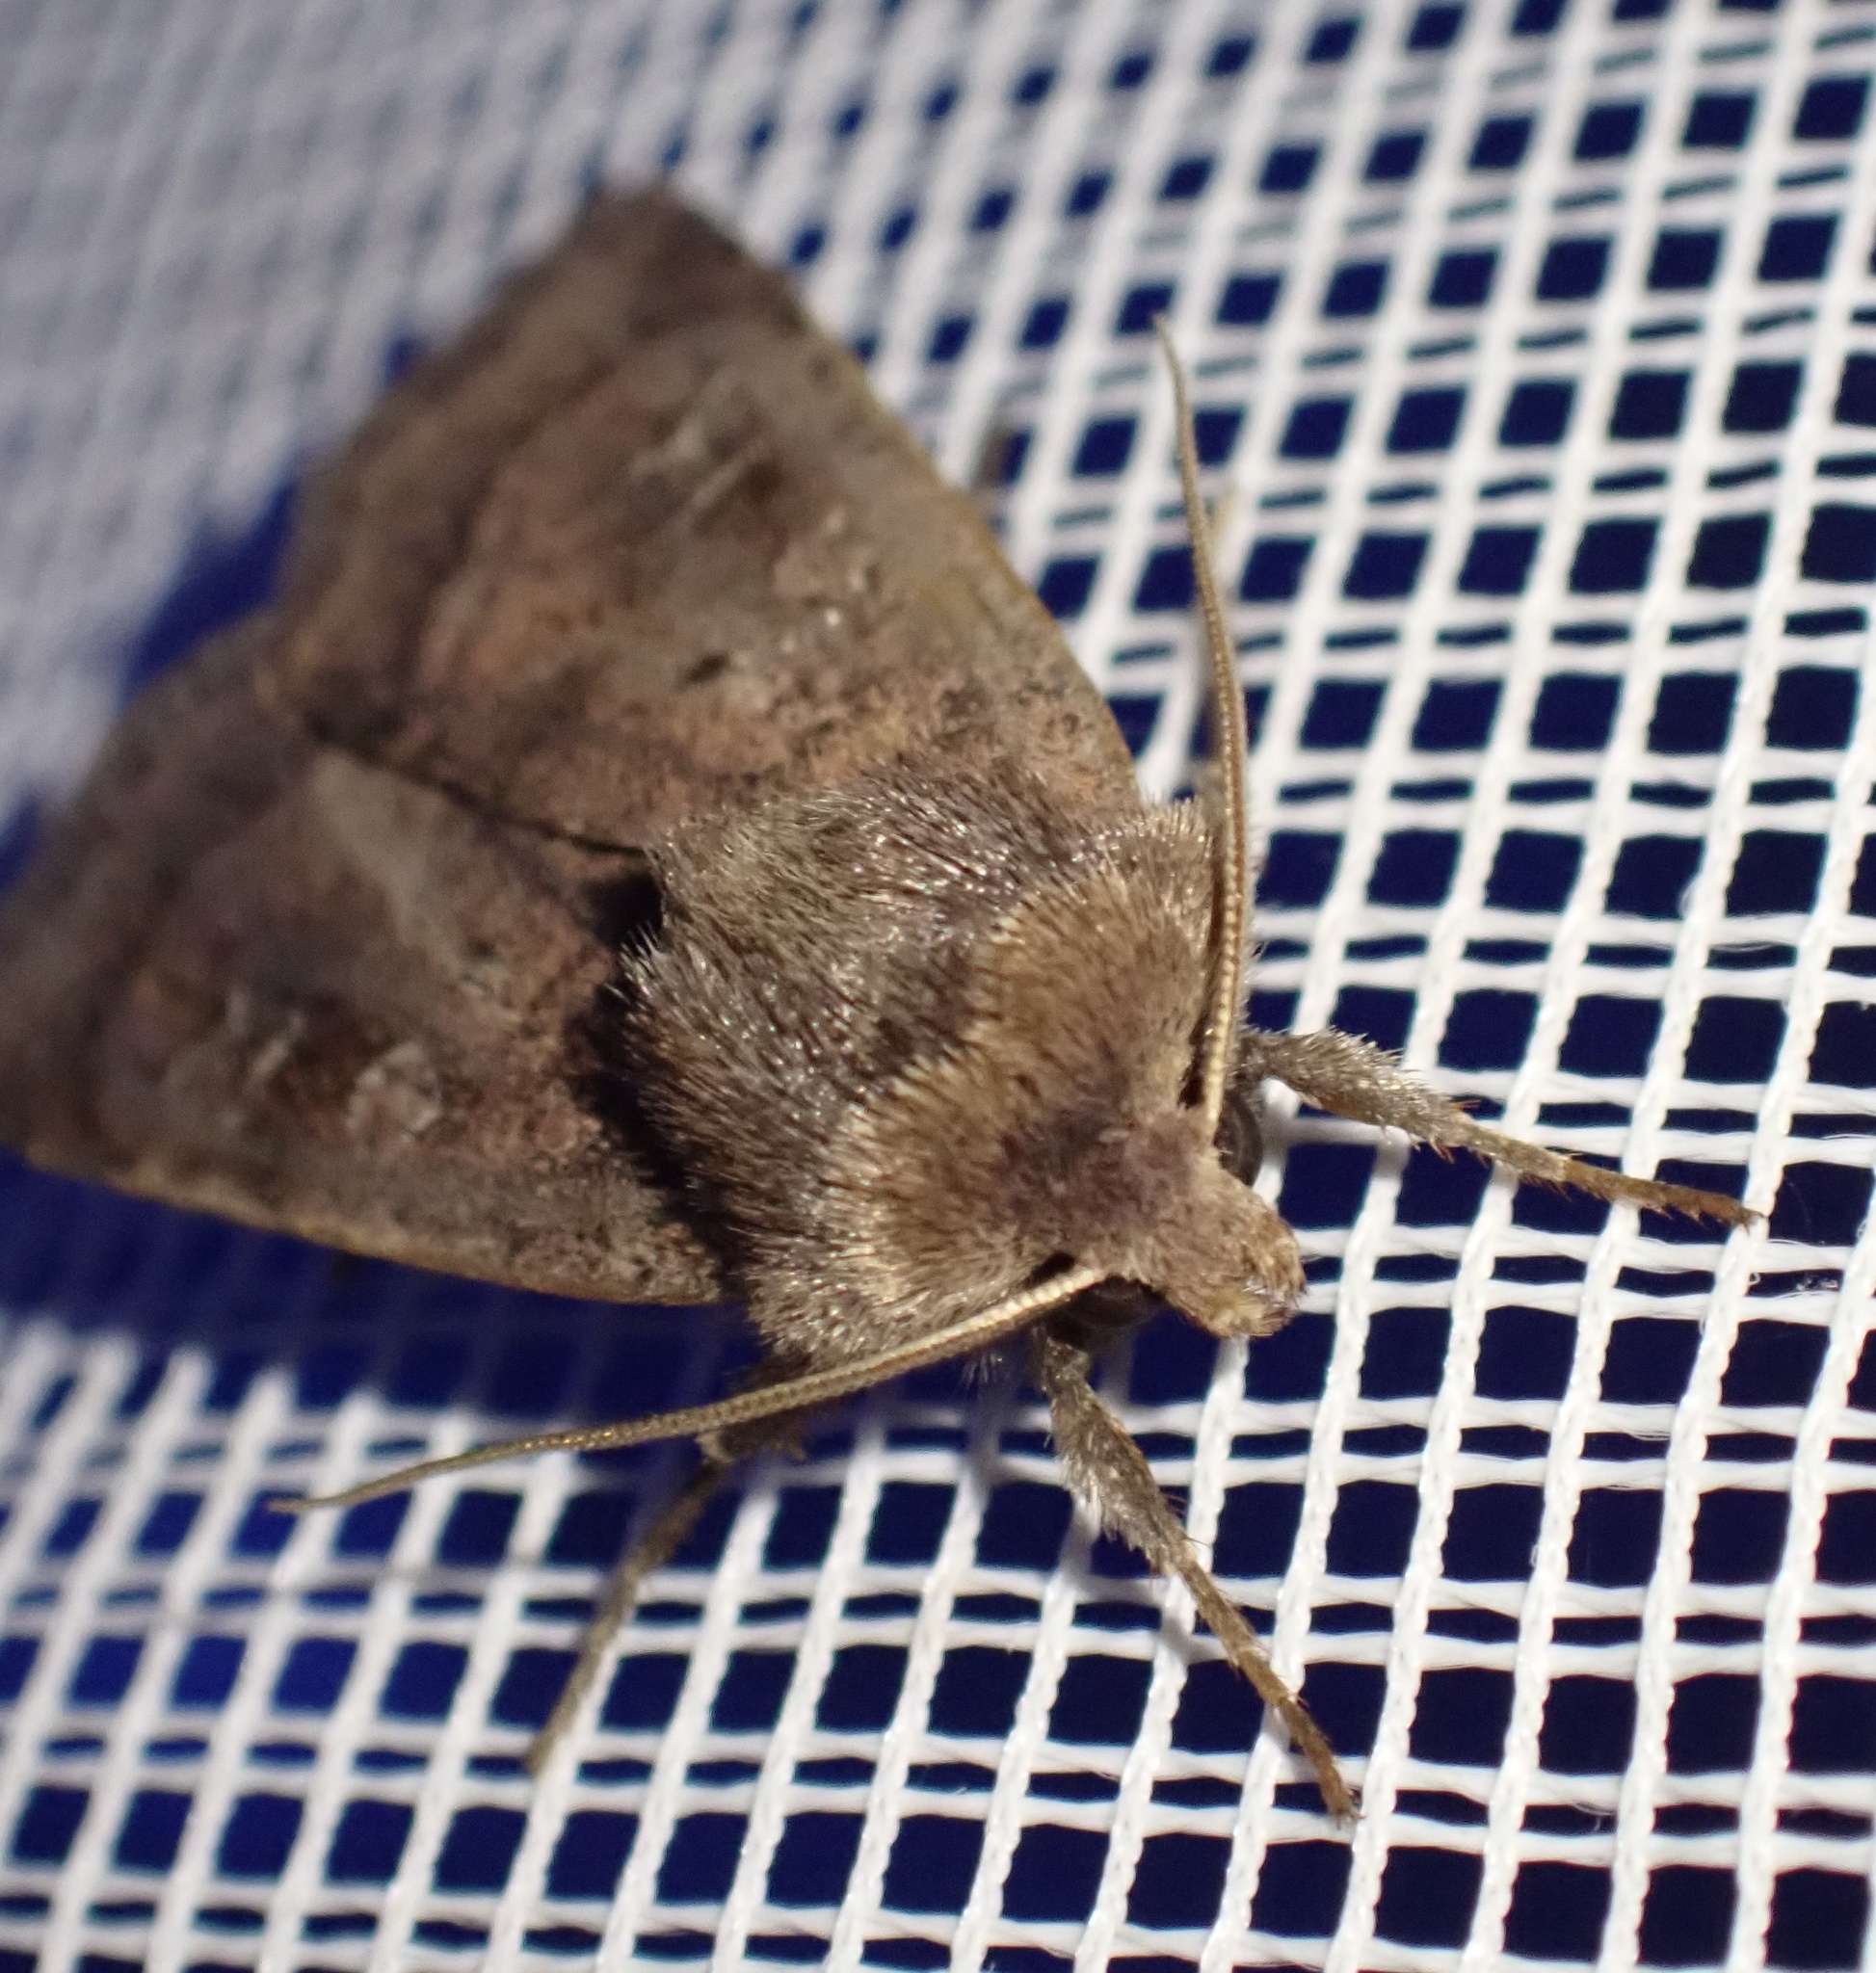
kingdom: Animalia
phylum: Arthropoda
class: Insecta
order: Lepidoptera
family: Noctuidae
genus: Diarsia
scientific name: Diarsia rubi
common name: Small square-spot
